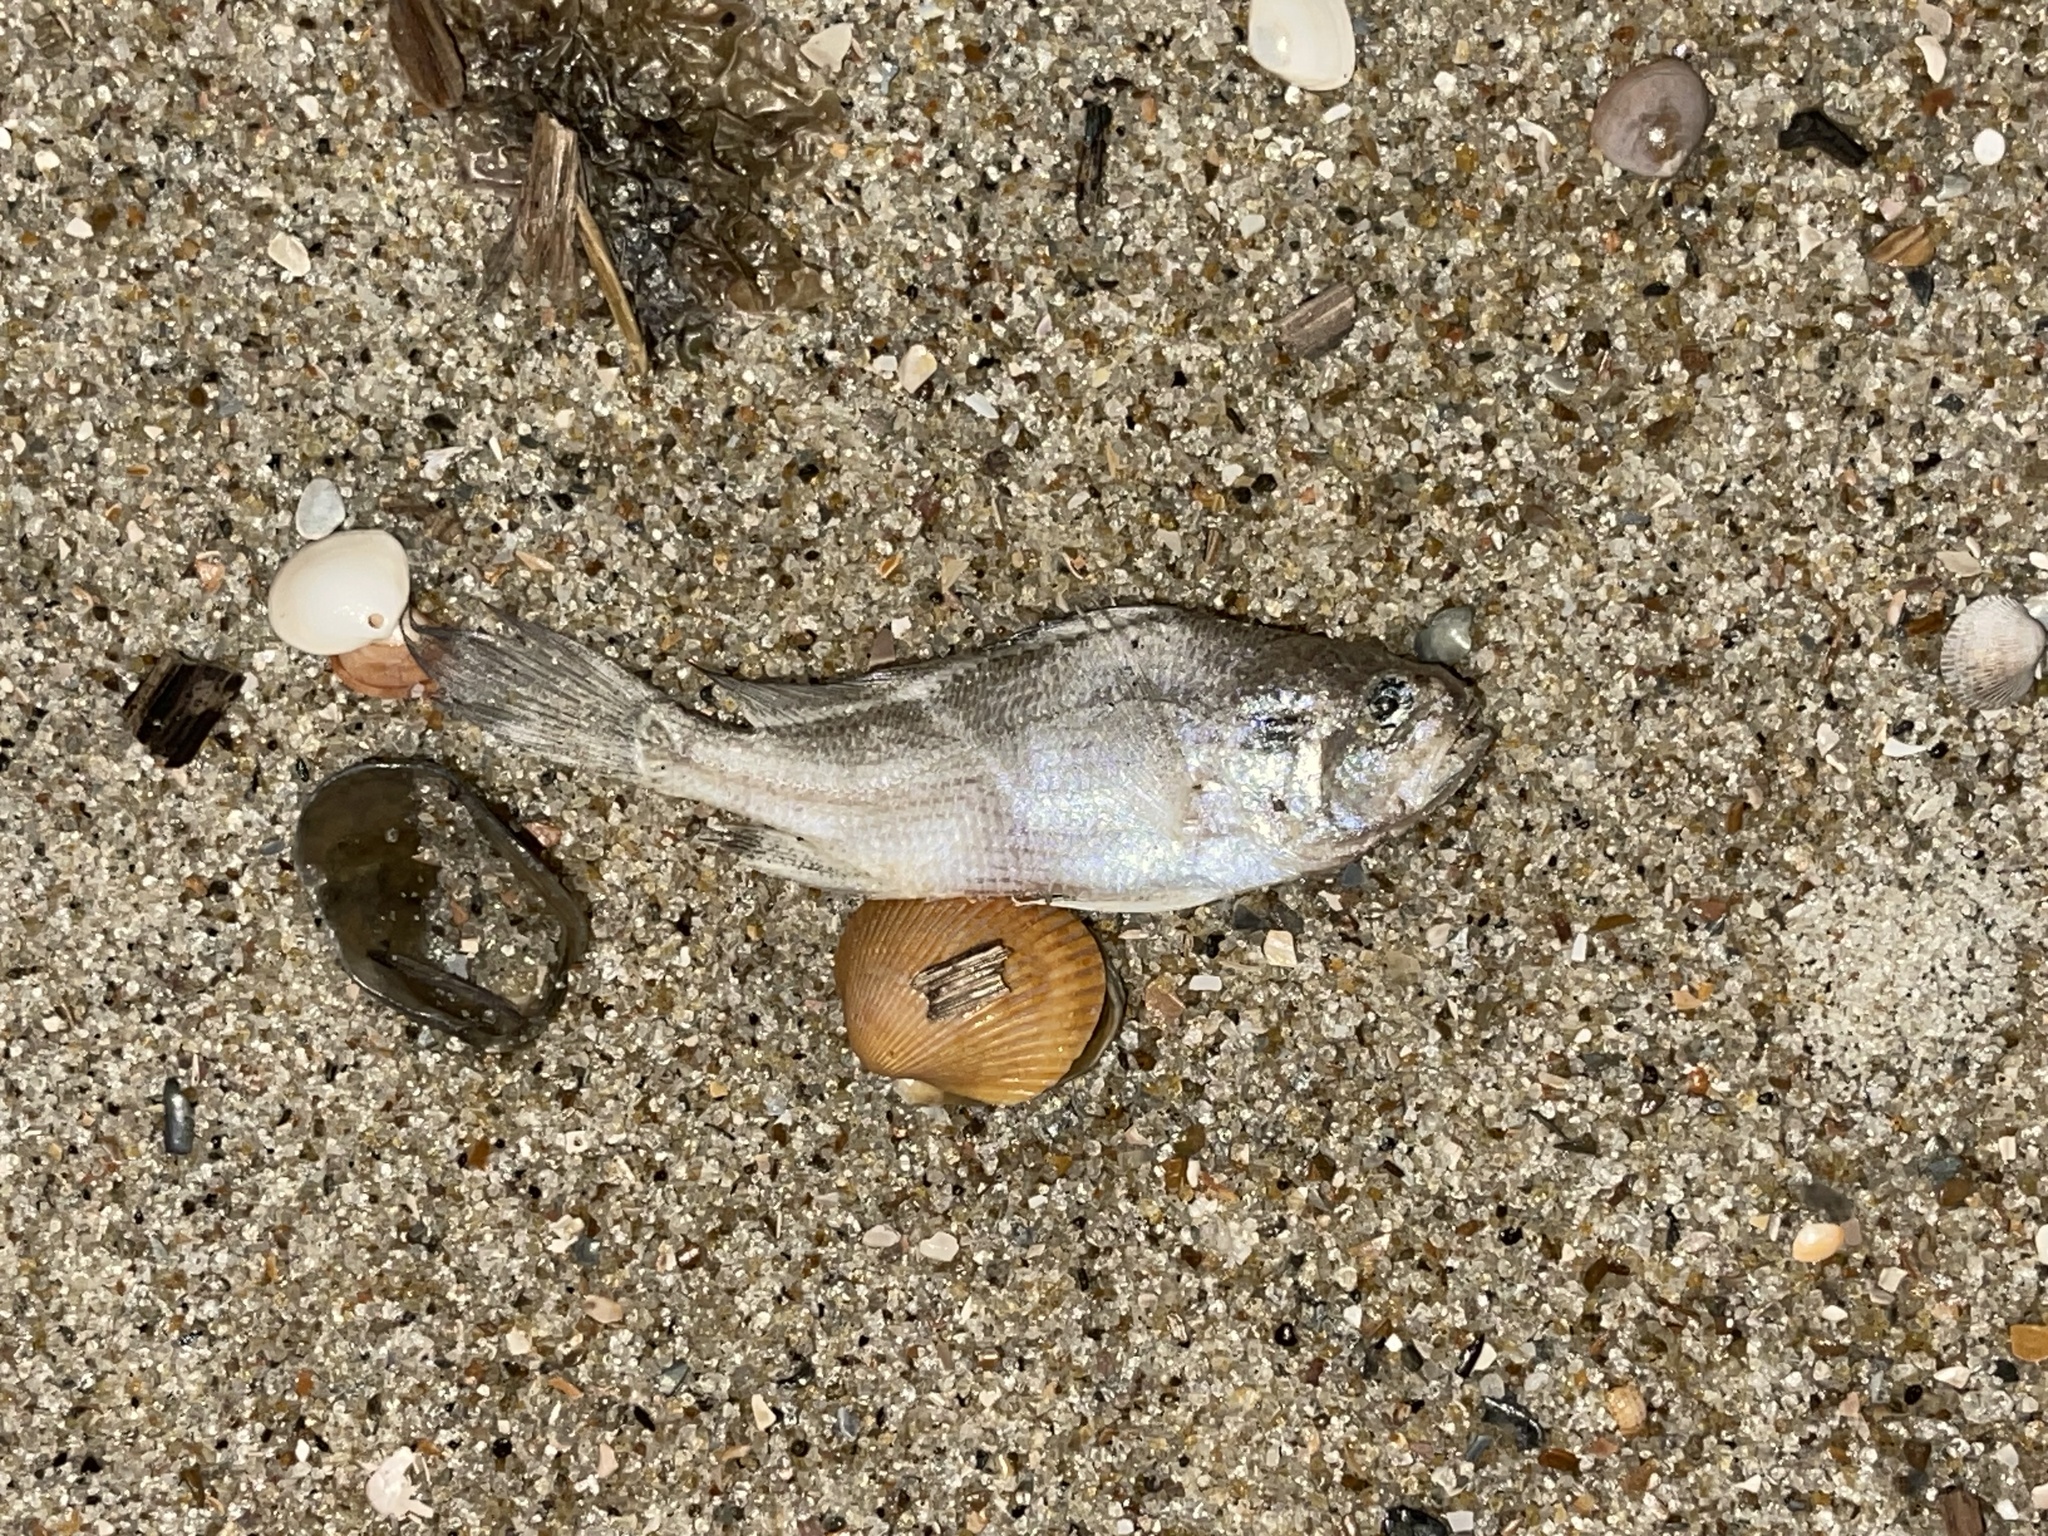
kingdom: Animalia
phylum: Chordata
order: Perciformes
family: Sciaenidae
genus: Bairdiella
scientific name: Bairdiella chrysoura
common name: Silver perch
